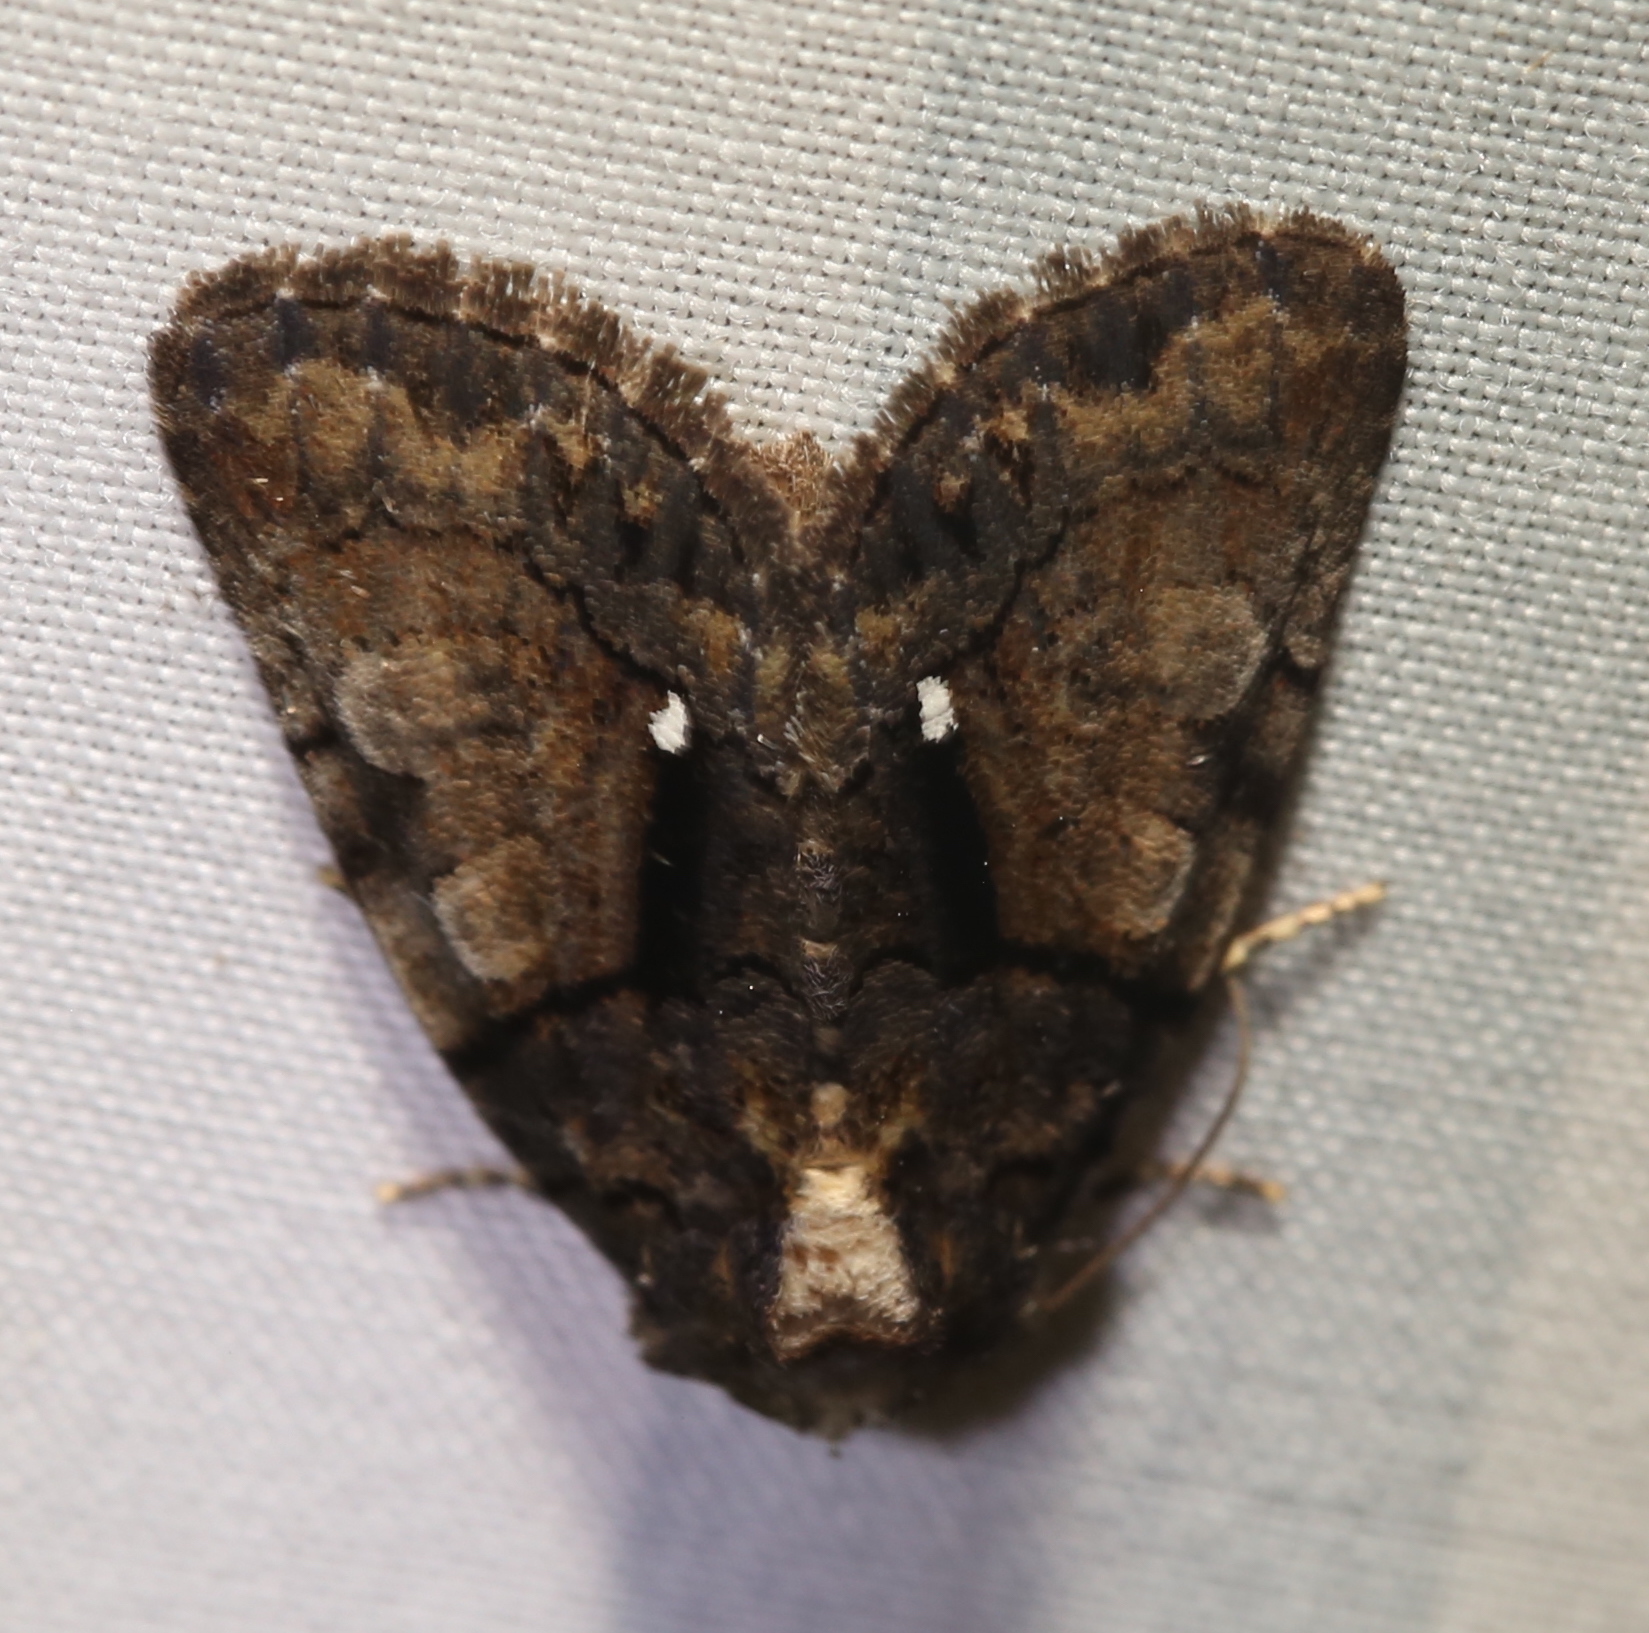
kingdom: Animalia
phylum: Arthropoda
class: Insecta
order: Lepidoptera
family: Noctuidae
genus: Chytonix
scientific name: Chytonix palliatricula
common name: Cloaked marvel
